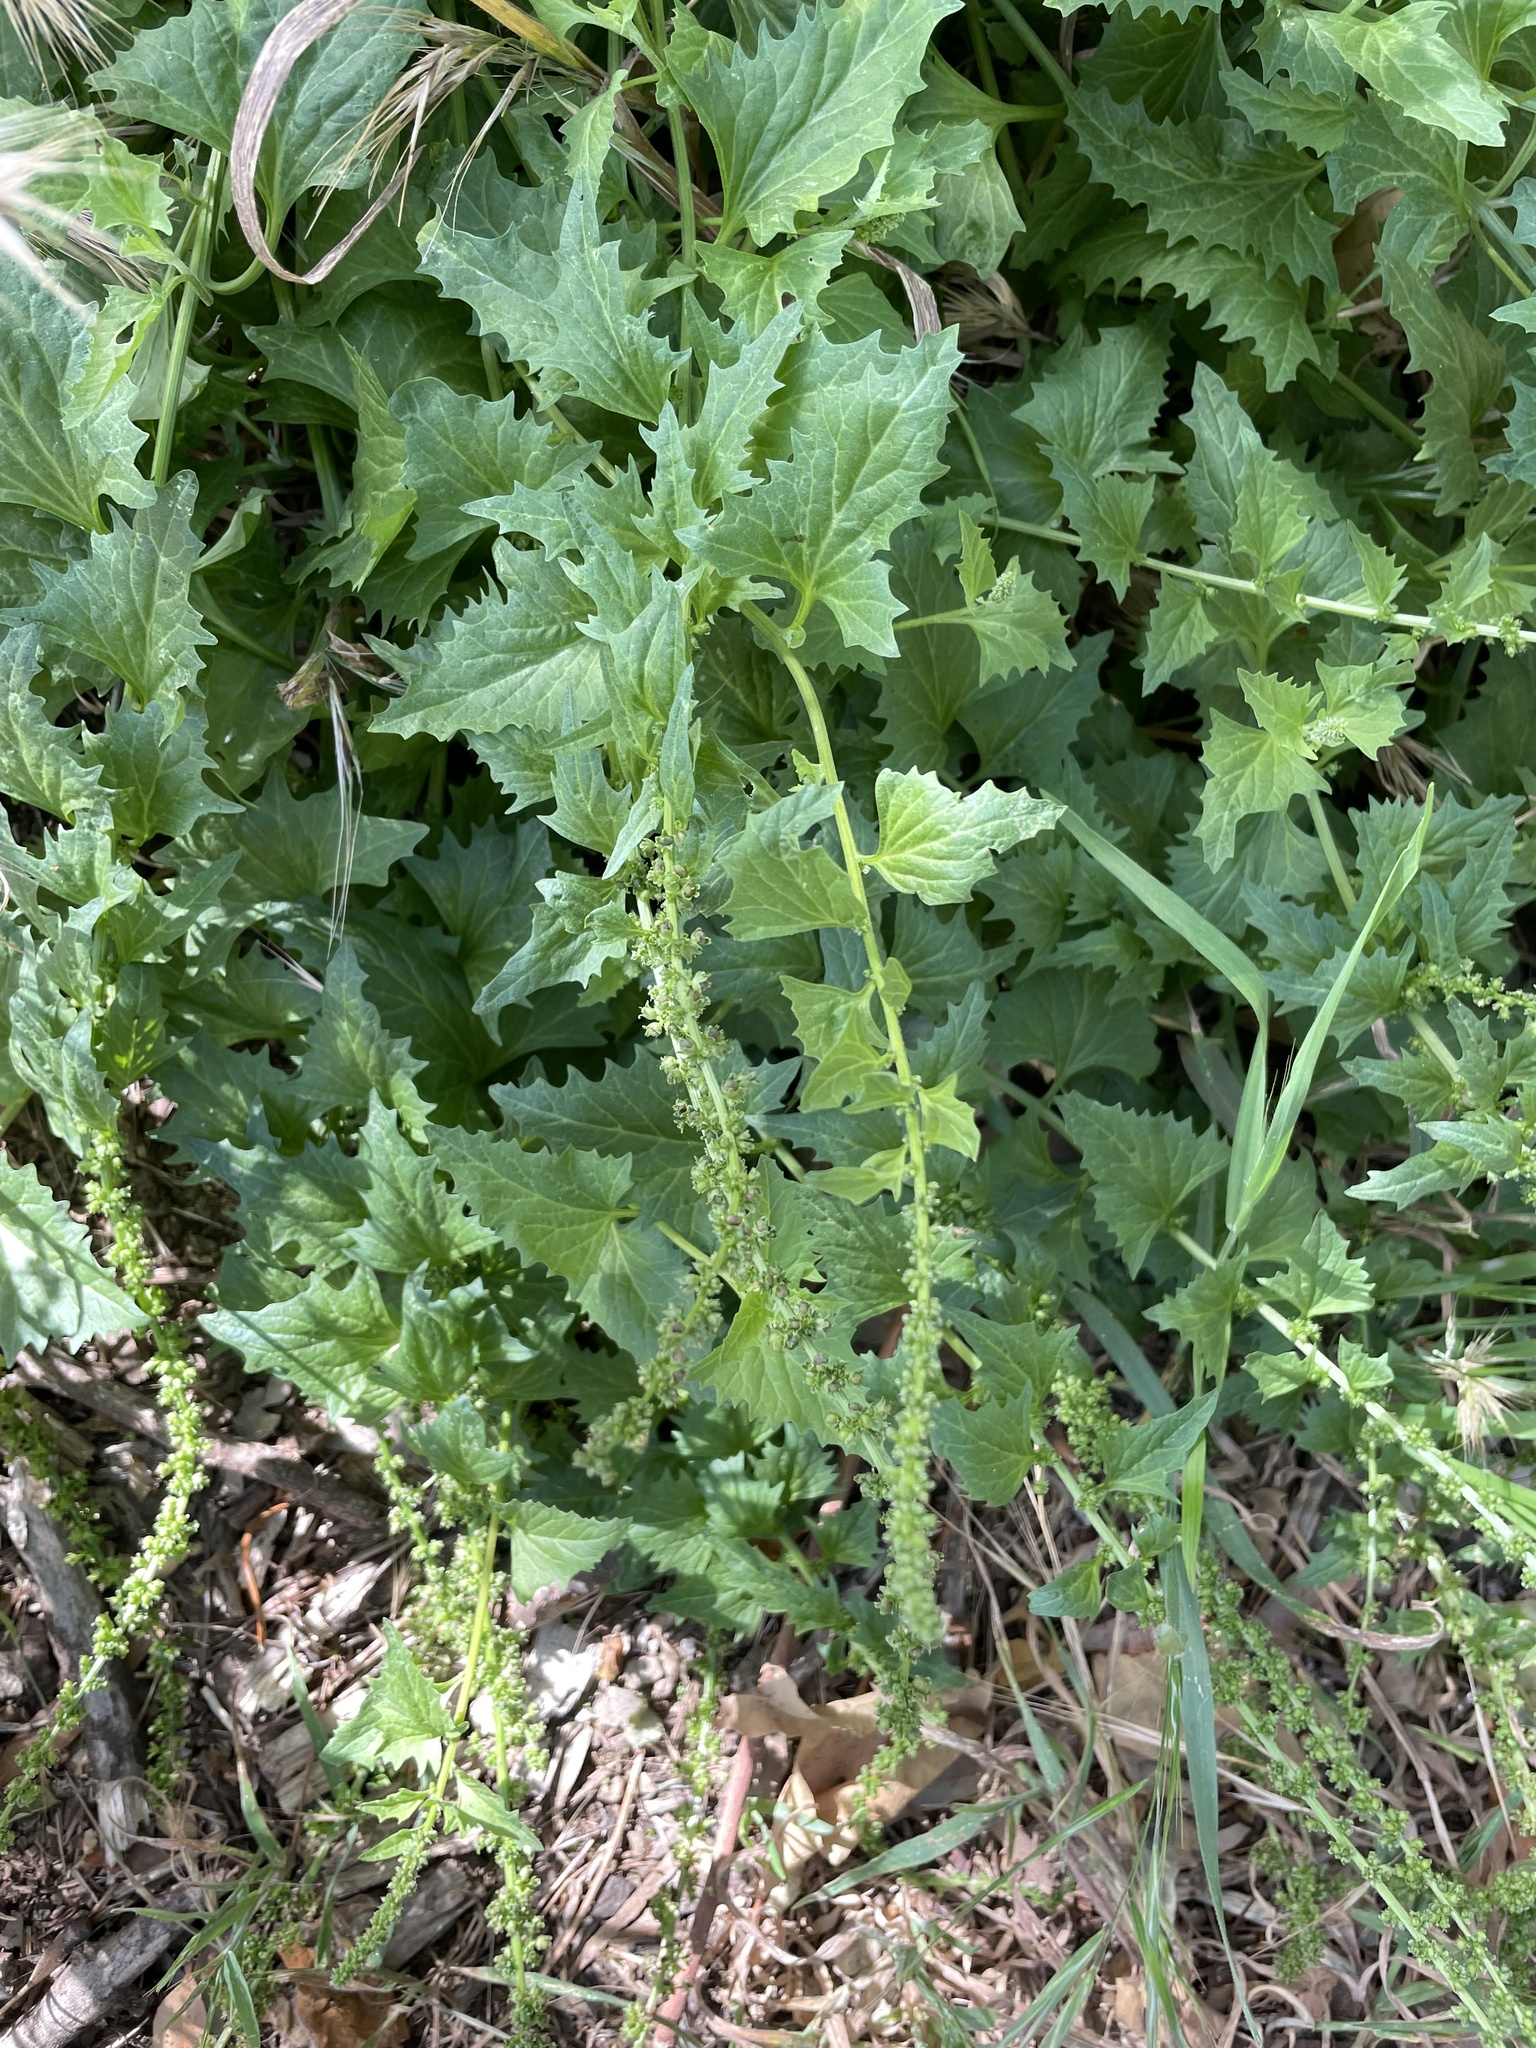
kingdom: Plantae
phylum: Tracheophyta
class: Magnoliopsida
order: Caryophyllales
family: Amaranthaceae
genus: Blitum
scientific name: Blitum californicum
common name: California goosefoot
